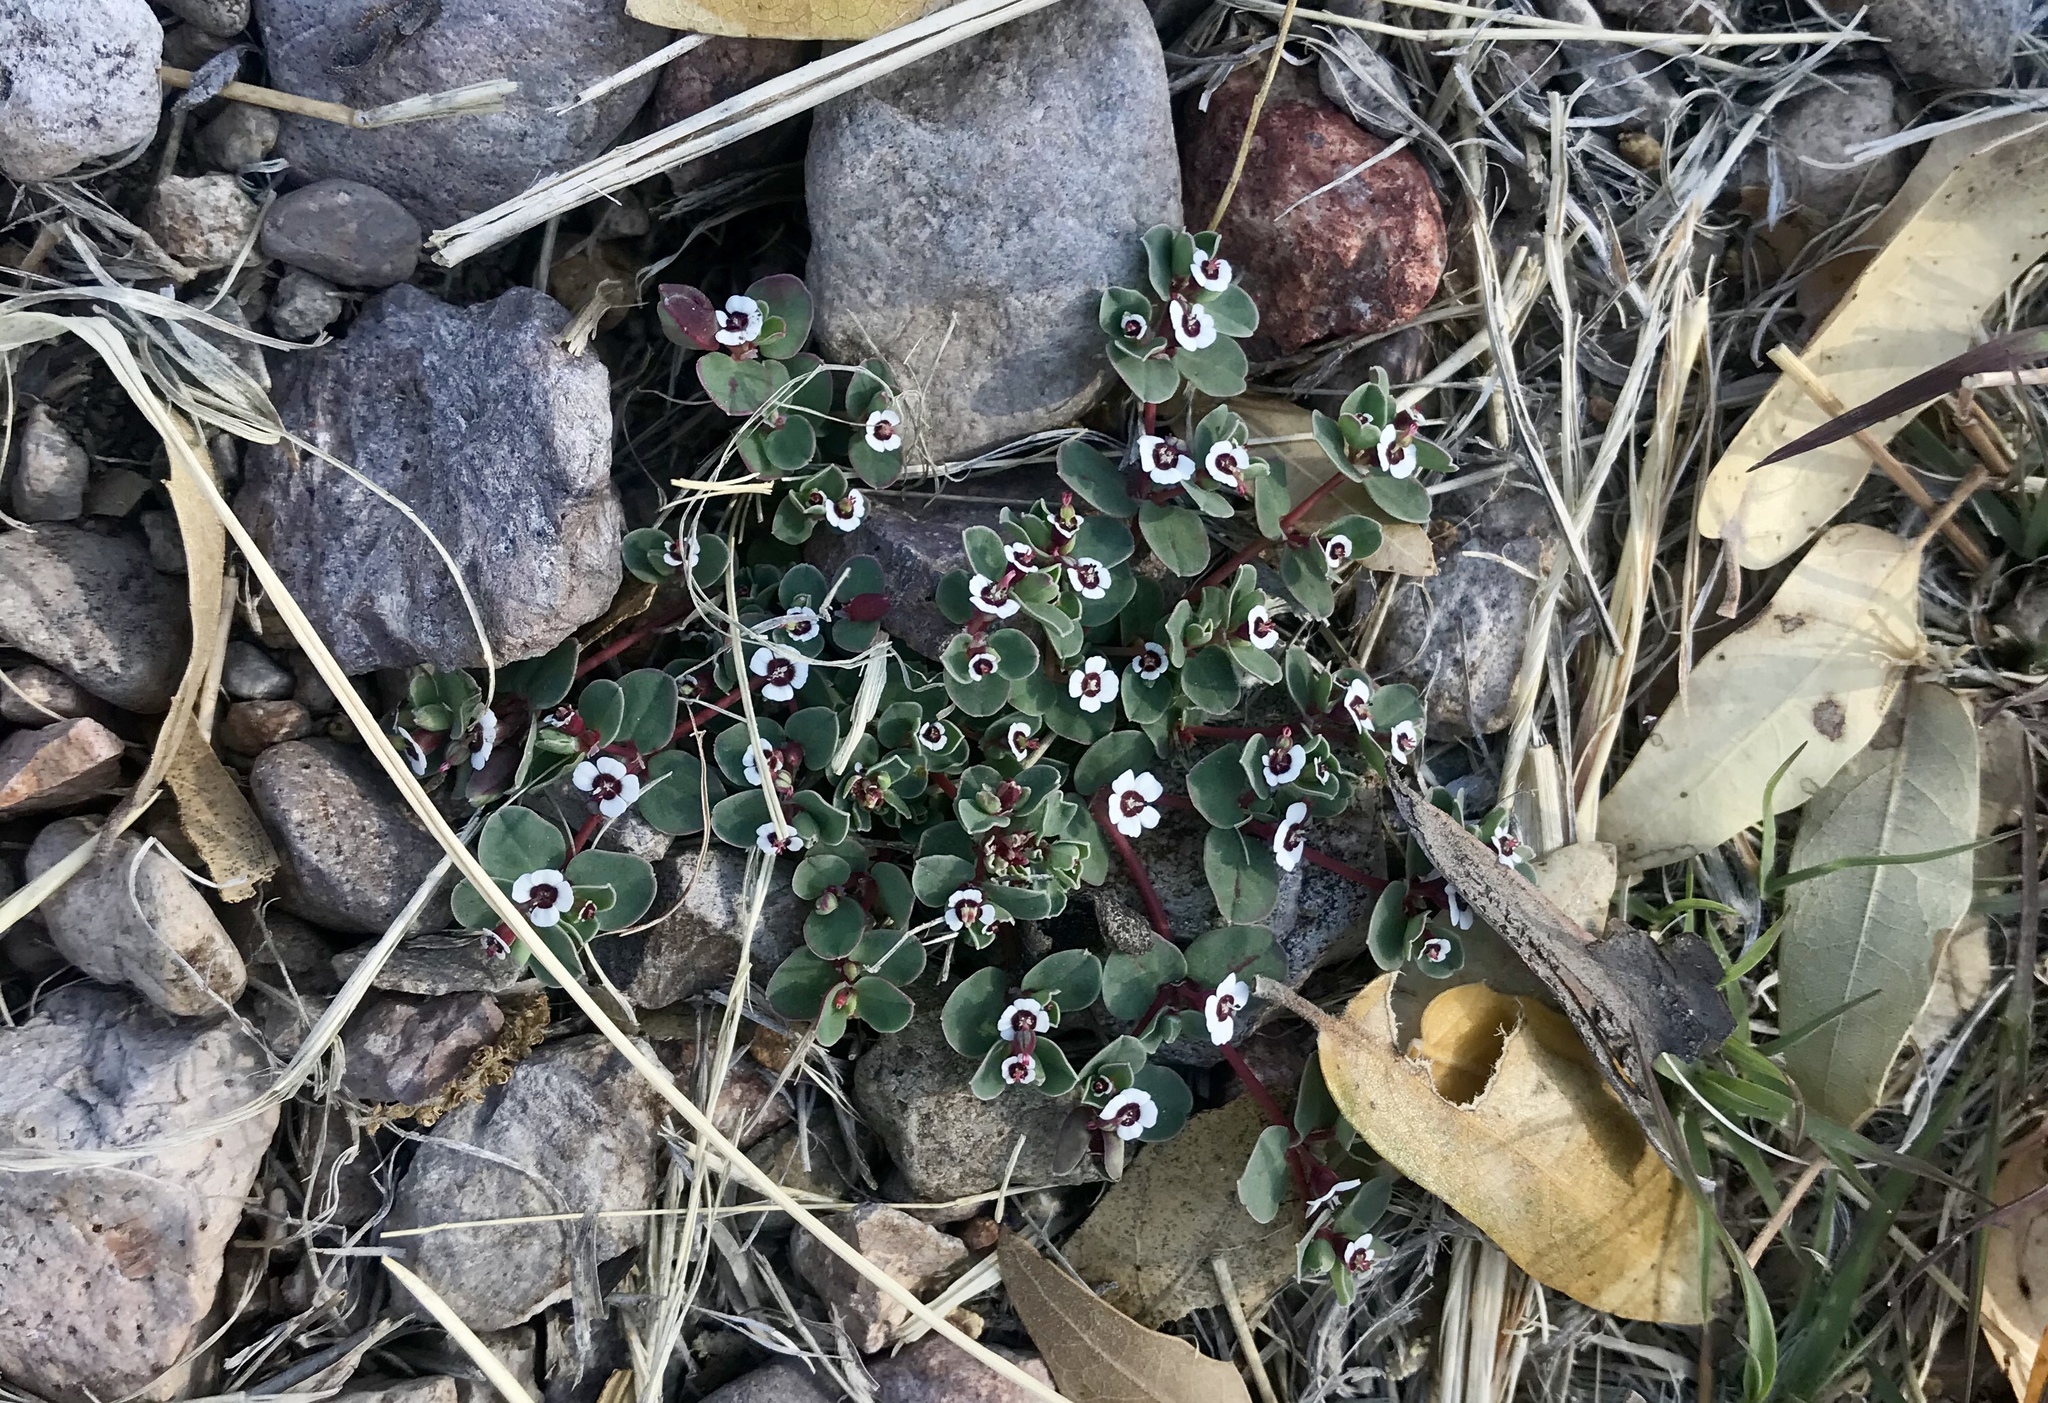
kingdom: Plantae
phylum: Tracheophyta
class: Magnoliopsida
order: Malpighiales
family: Euphorbiaceae
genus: Euphorbia
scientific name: Euphorbia albomarginata
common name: Whitemargin sandmat
